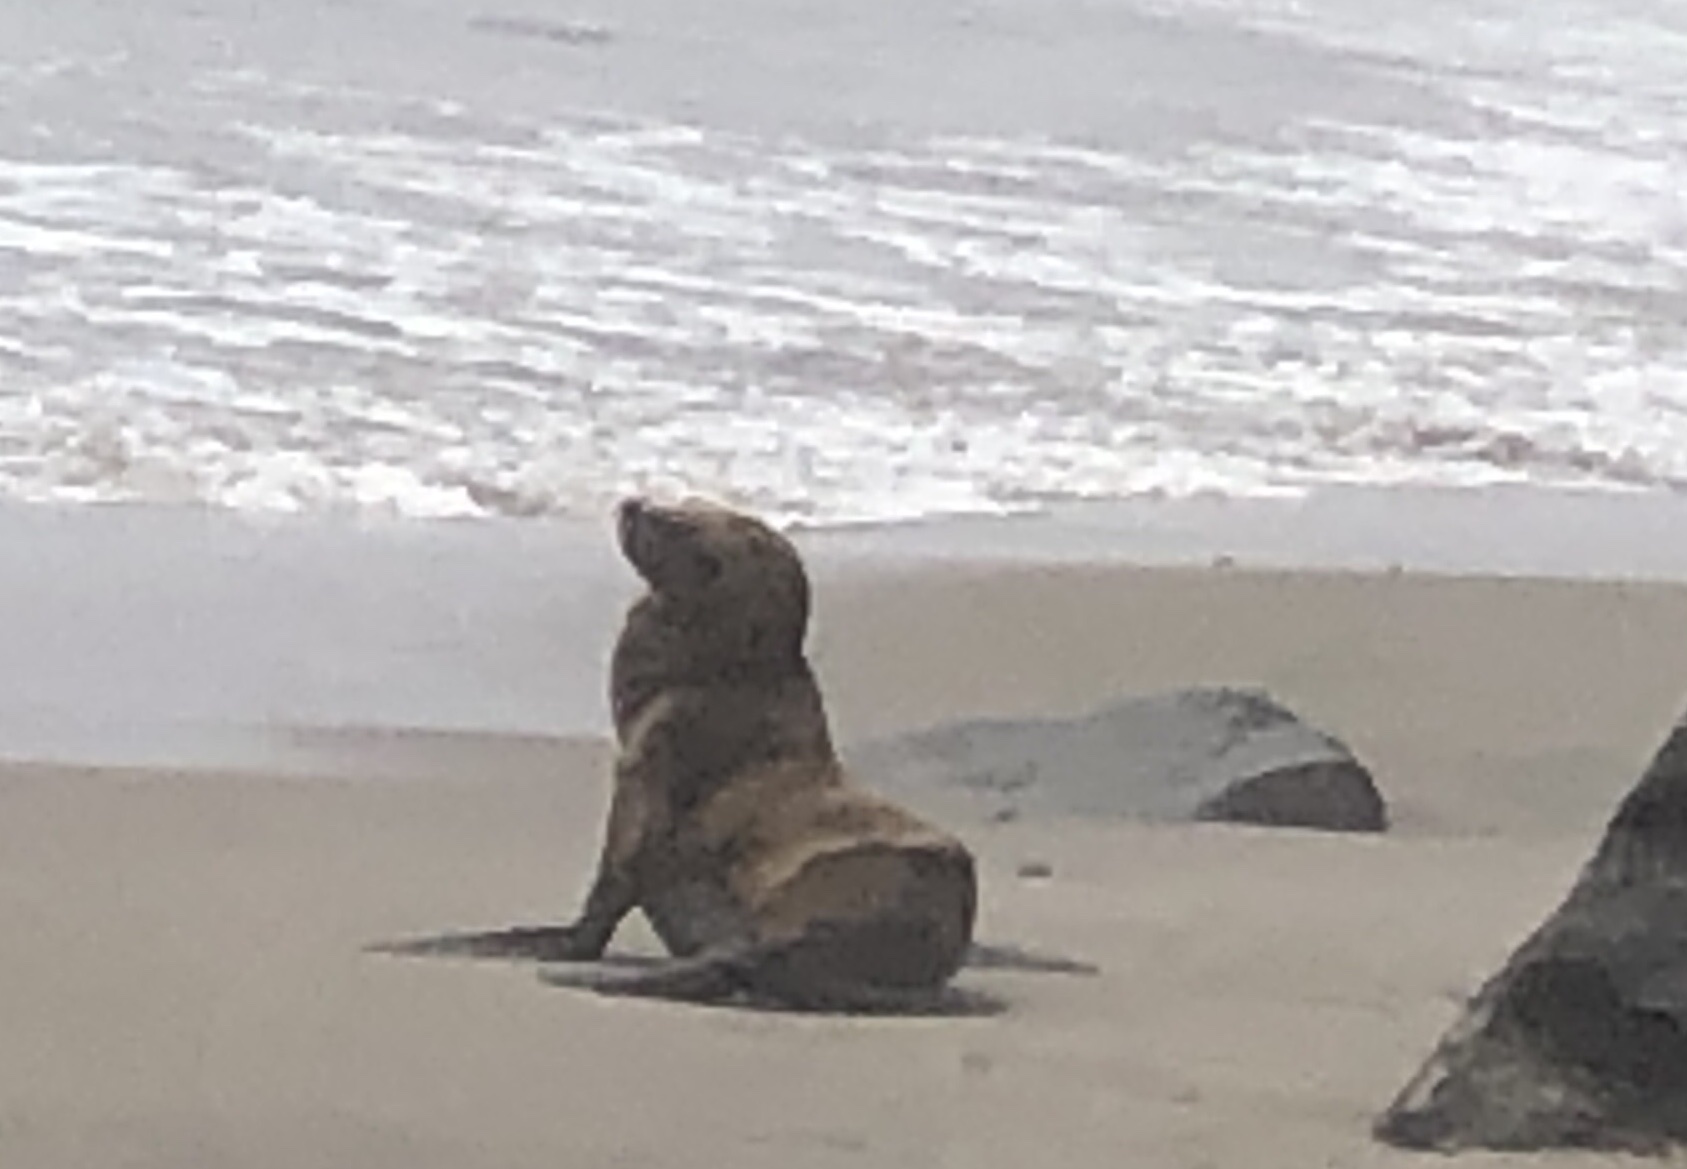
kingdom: Animalia
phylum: Chordata
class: Mammalia
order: Carnivora
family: Otariidae
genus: Zalophus
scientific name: Zalophus californianus
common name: California sea lion
